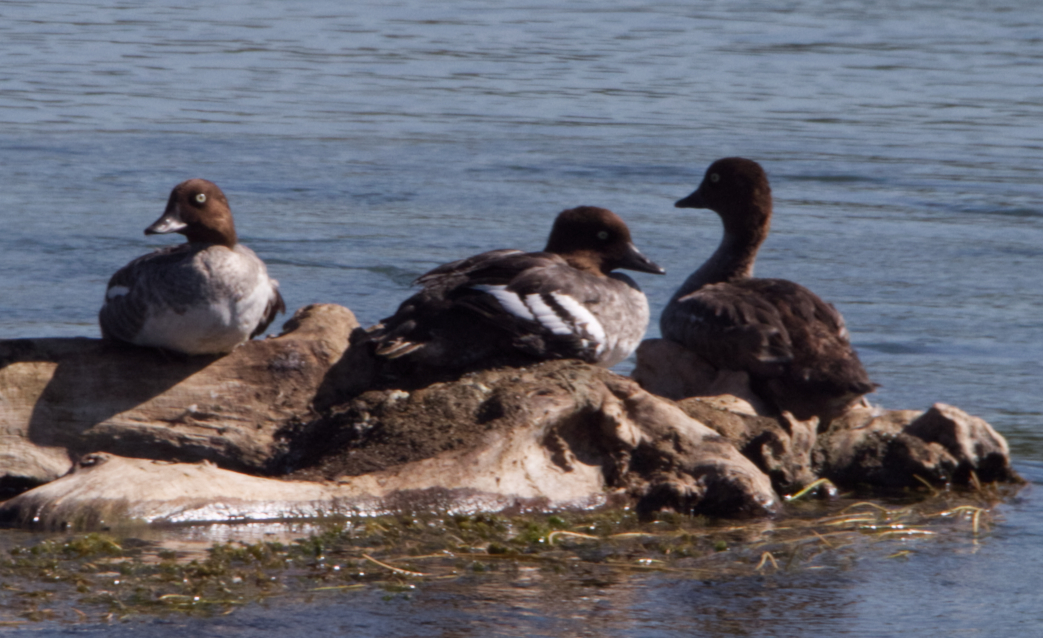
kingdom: Animalia
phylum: Chordata
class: Aves
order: Anseriformes
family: Anatidae
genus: Bucephala
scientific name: Bucephala clangula
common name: Common goldeneye
